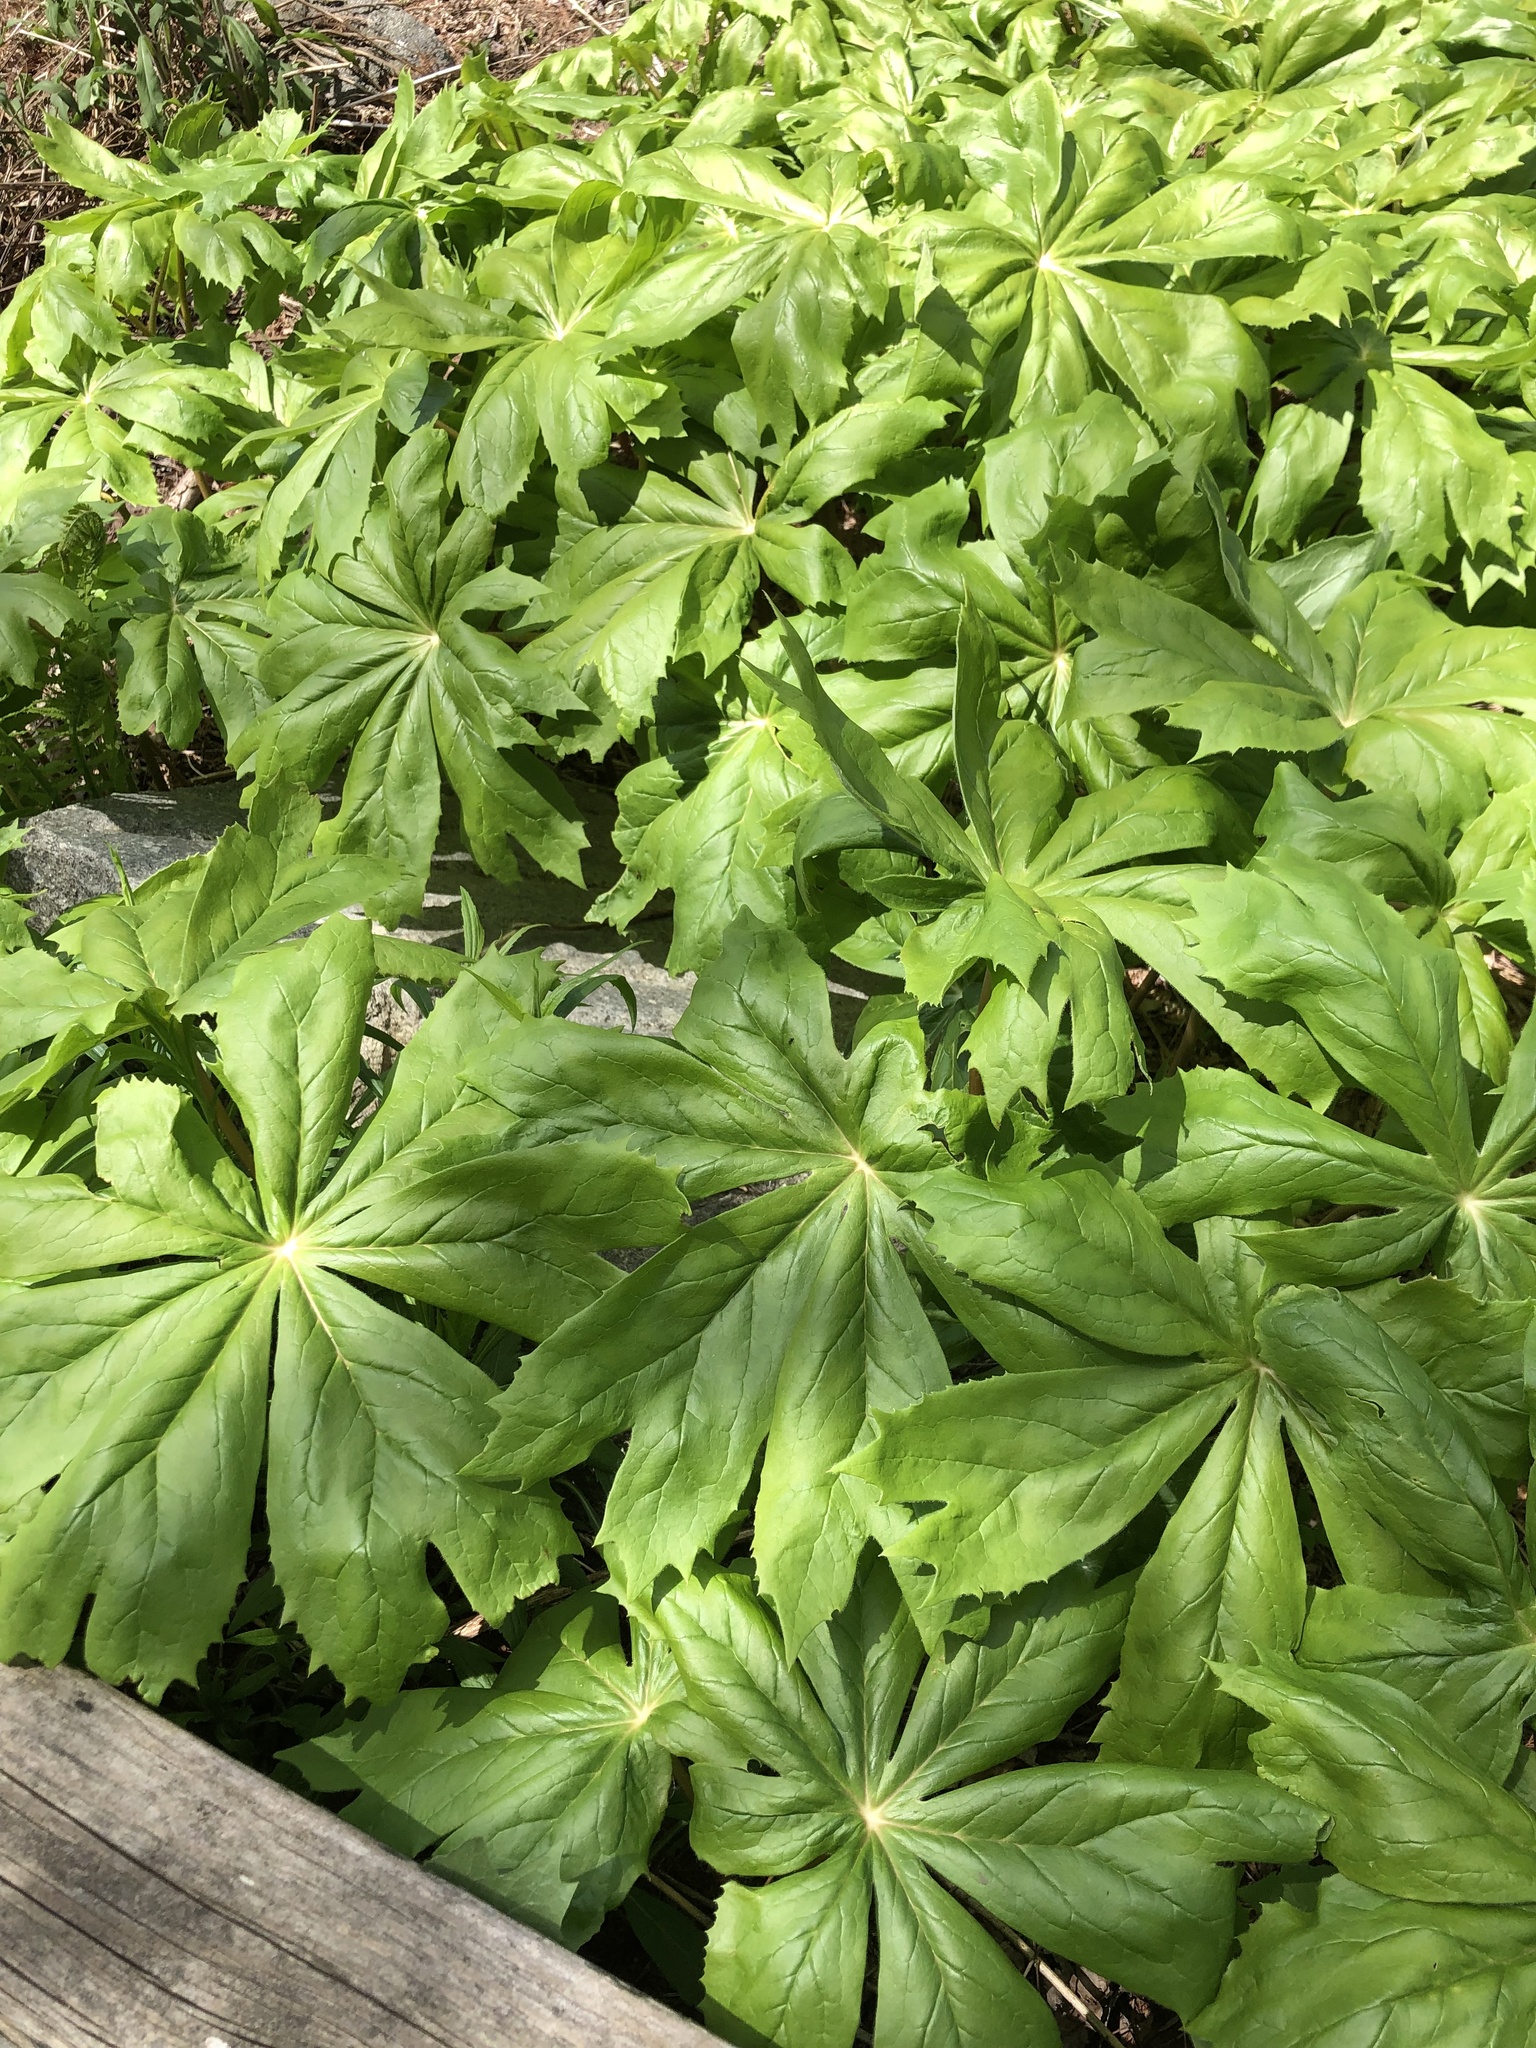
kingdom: Plantae
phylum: Tracheophyta
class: Magnoliopsida
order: Ranunculales
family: Berberidaceae
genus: Podophyllum
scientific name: Podophyllum peltatum
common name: Wild mandrake
